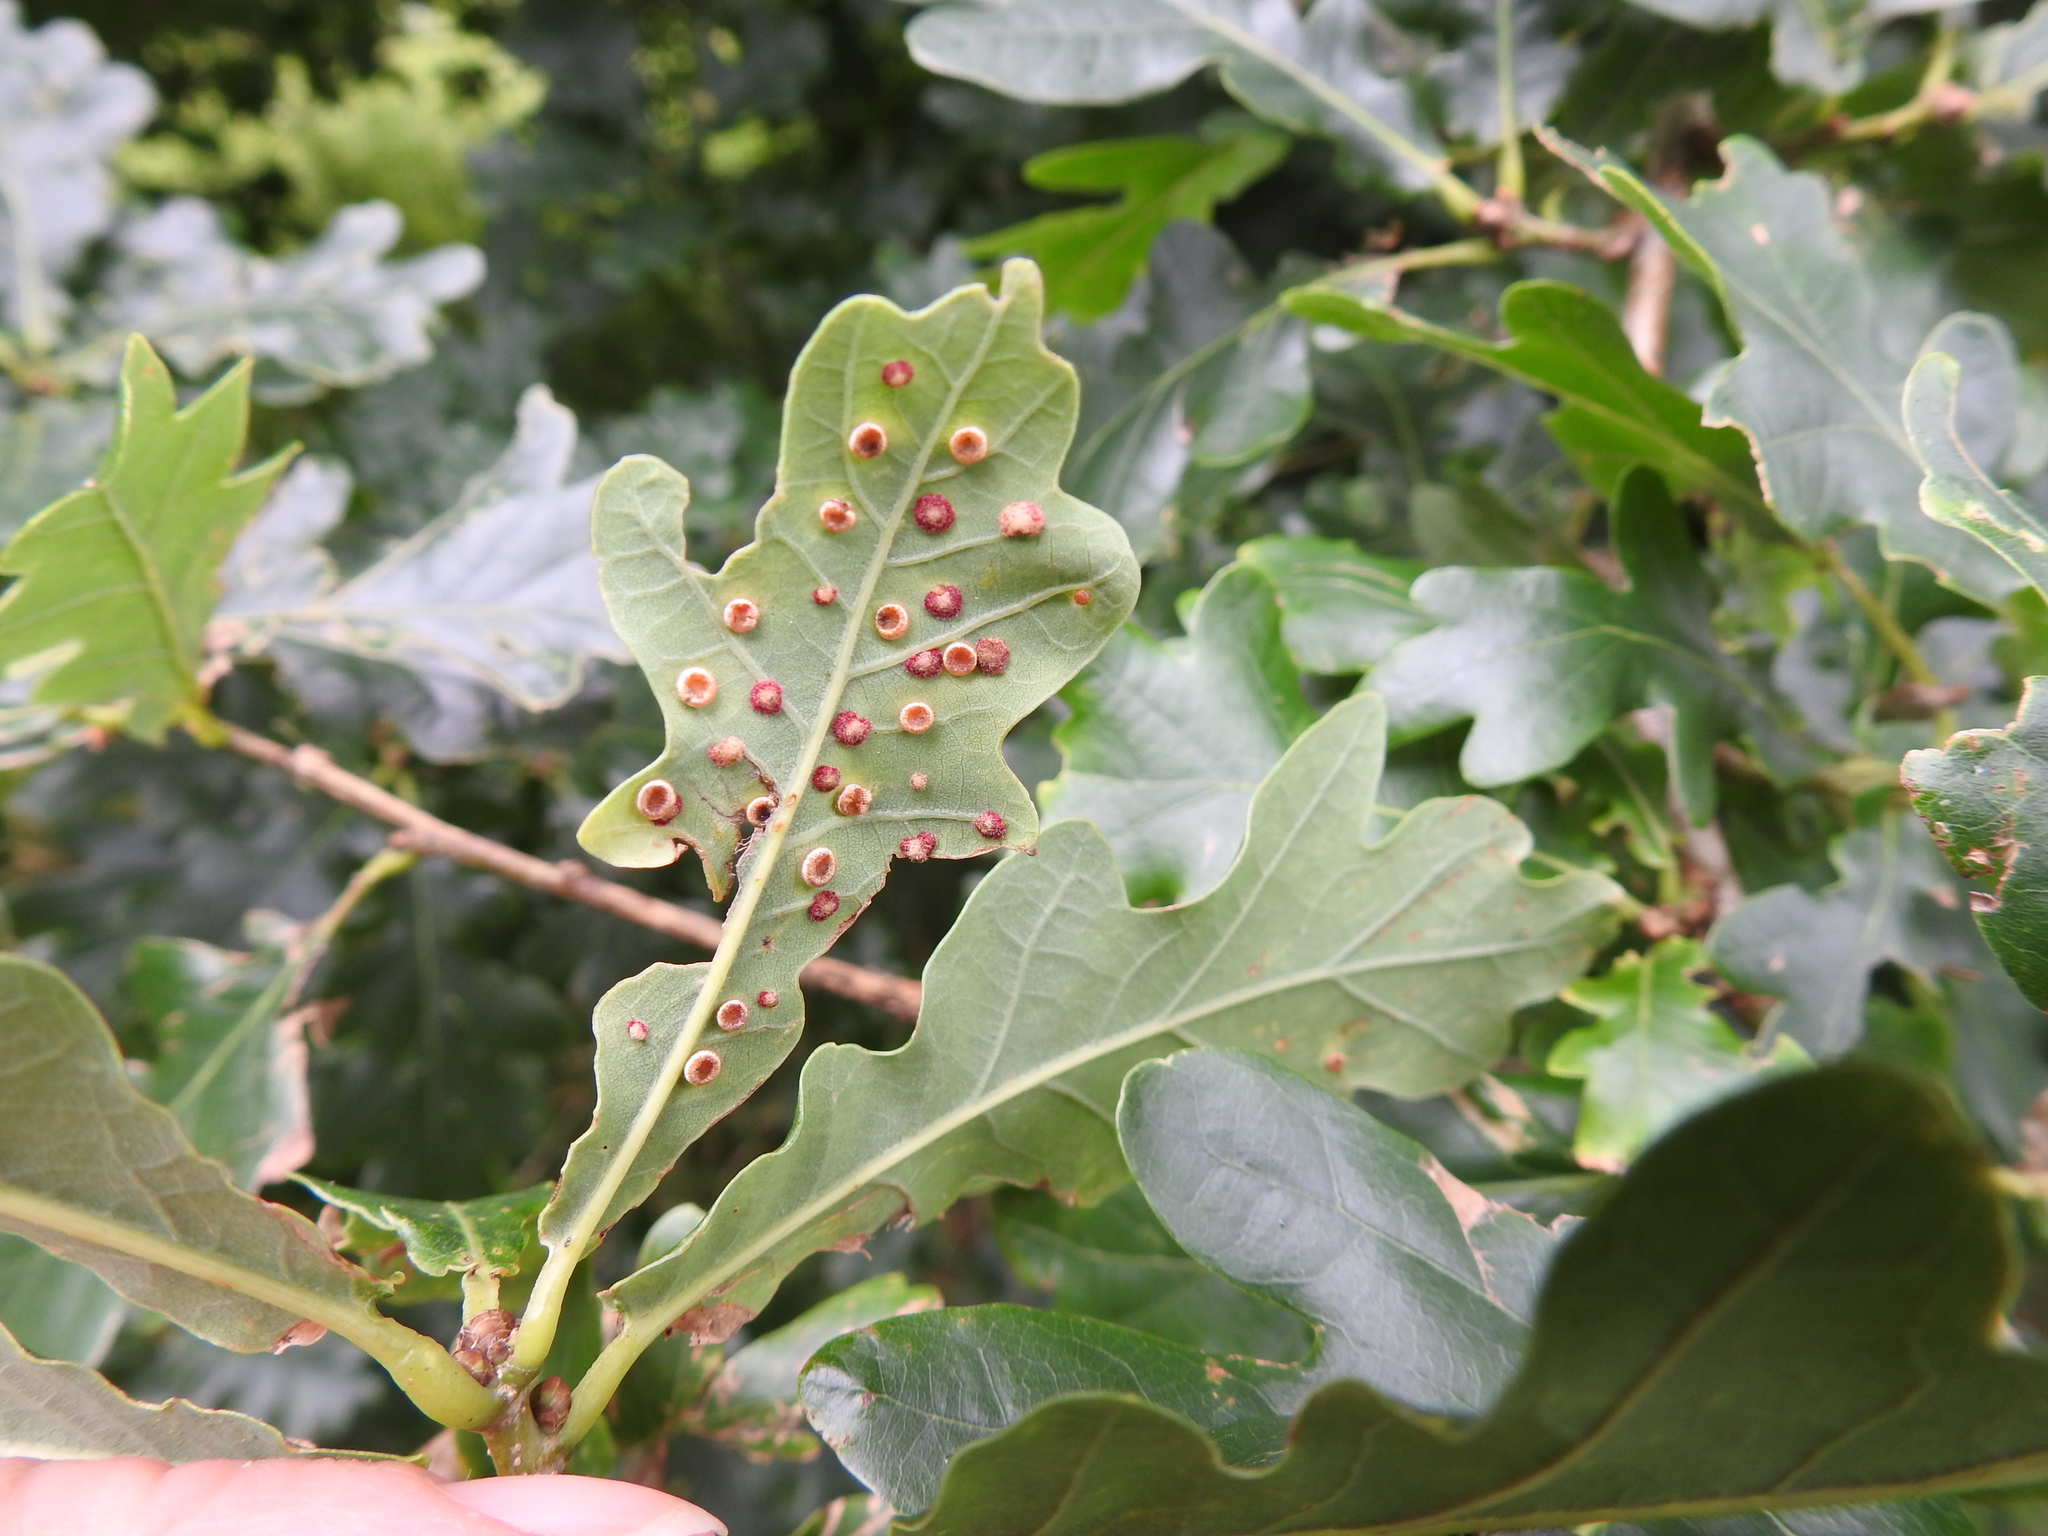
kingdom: Animalia
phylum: Arthropoda
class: Insecta
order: Hymenoptera
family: Cynipidae
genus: Neuroterus
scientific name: Neuroterus numismalis
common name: Silk-button spangle gall
